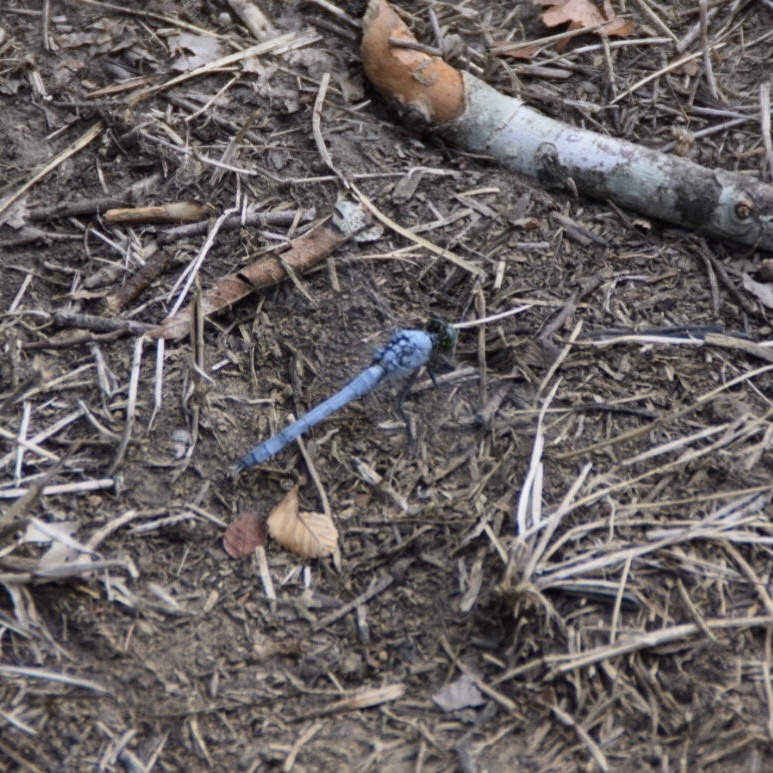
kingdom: Animalia
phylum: Arthropoda
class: Insecta
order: Odonata
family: Libellulidae
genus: Erythemis
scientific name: Erythemis simplicicollis
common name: Eastern pondhawk
